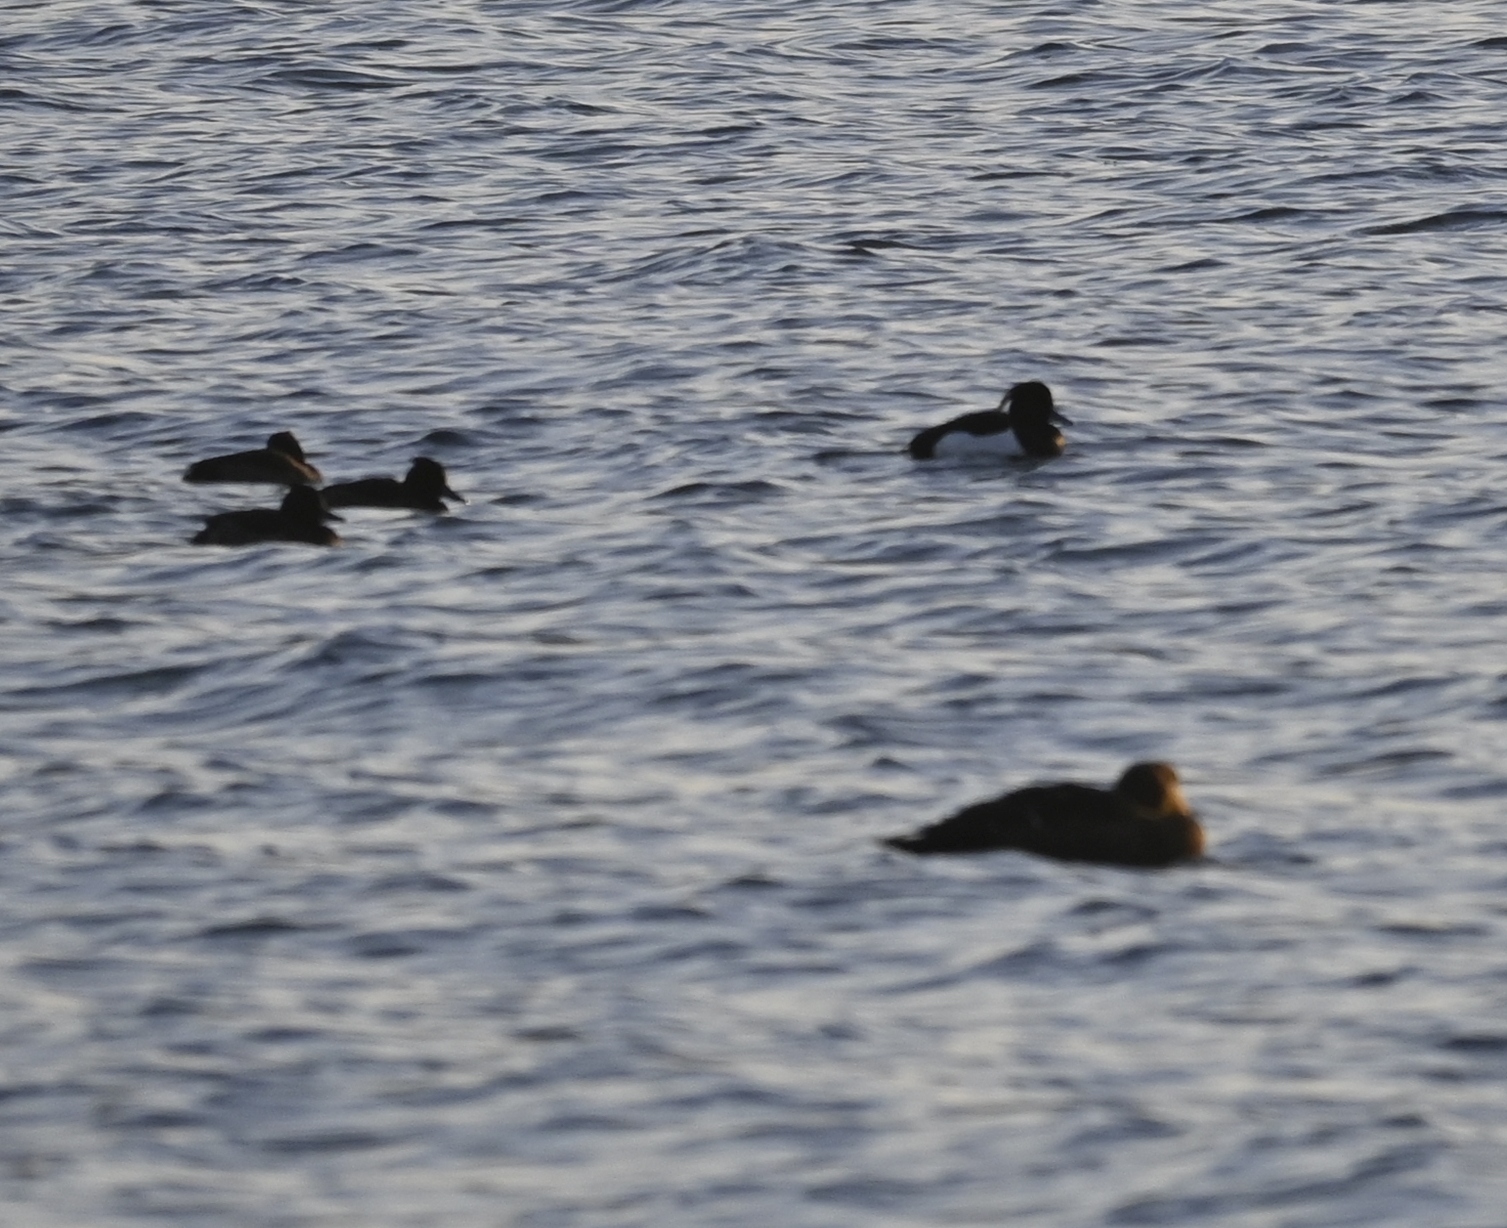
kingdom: Animalia
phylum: Chordata
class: Aves
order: Anseriformes
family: Anatidae
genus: Aythya
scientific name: Aythya fuligula
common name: Tufted duck
